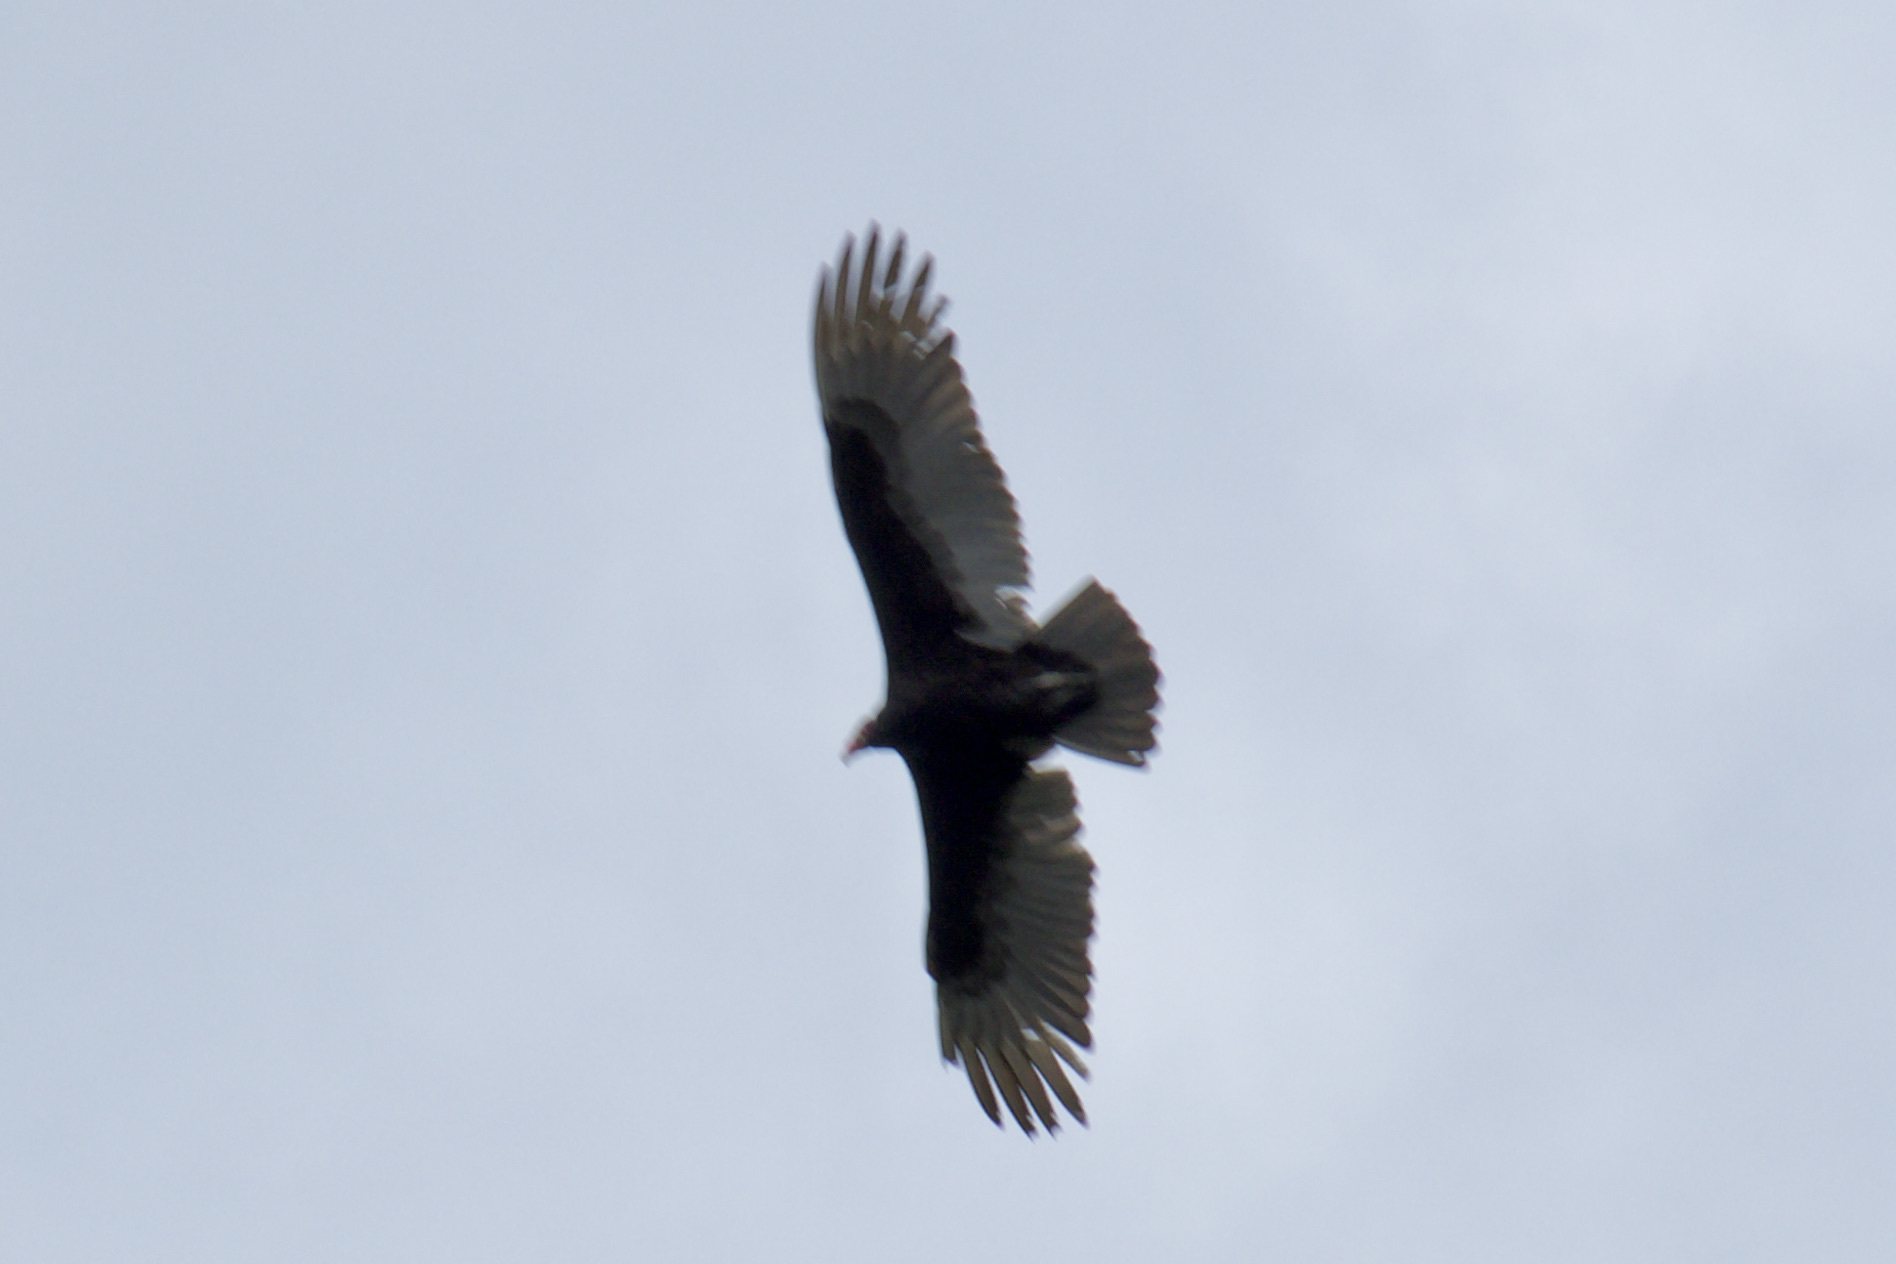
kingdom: Animalia
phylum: Chordata
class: Aves
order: Accipitriformes
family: Cathartidae
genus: Cathartes
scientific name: Cathartes aura
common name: Turkey vulture
